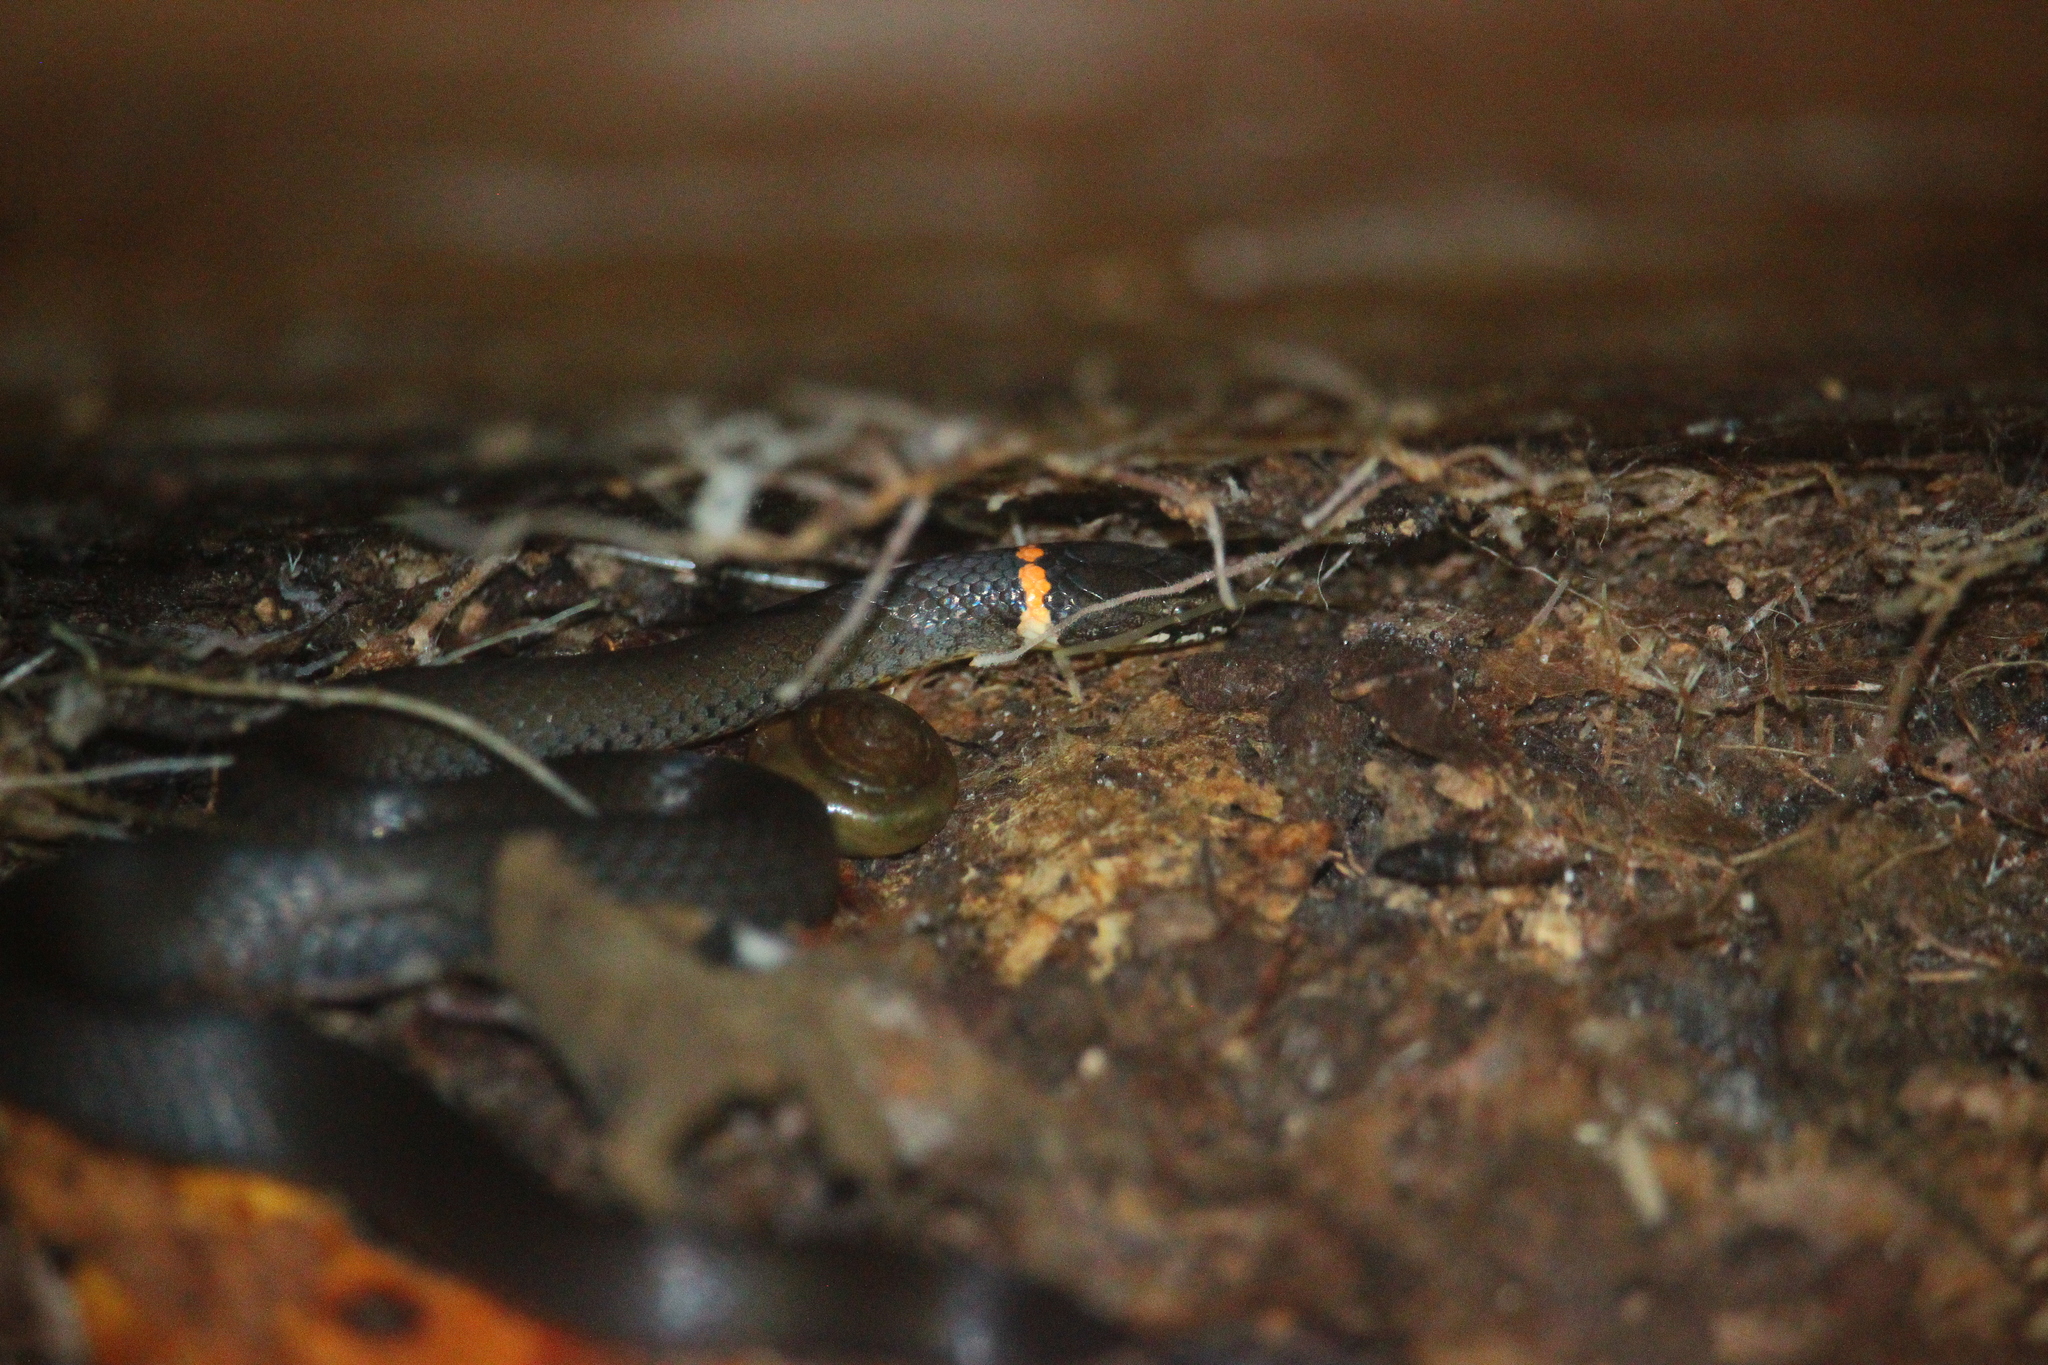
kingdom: Animalia
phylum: Chordata
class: Squamata
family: Colubridae
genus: Diadophis
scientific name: Diadophis punctatus
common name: Ringneck snake
